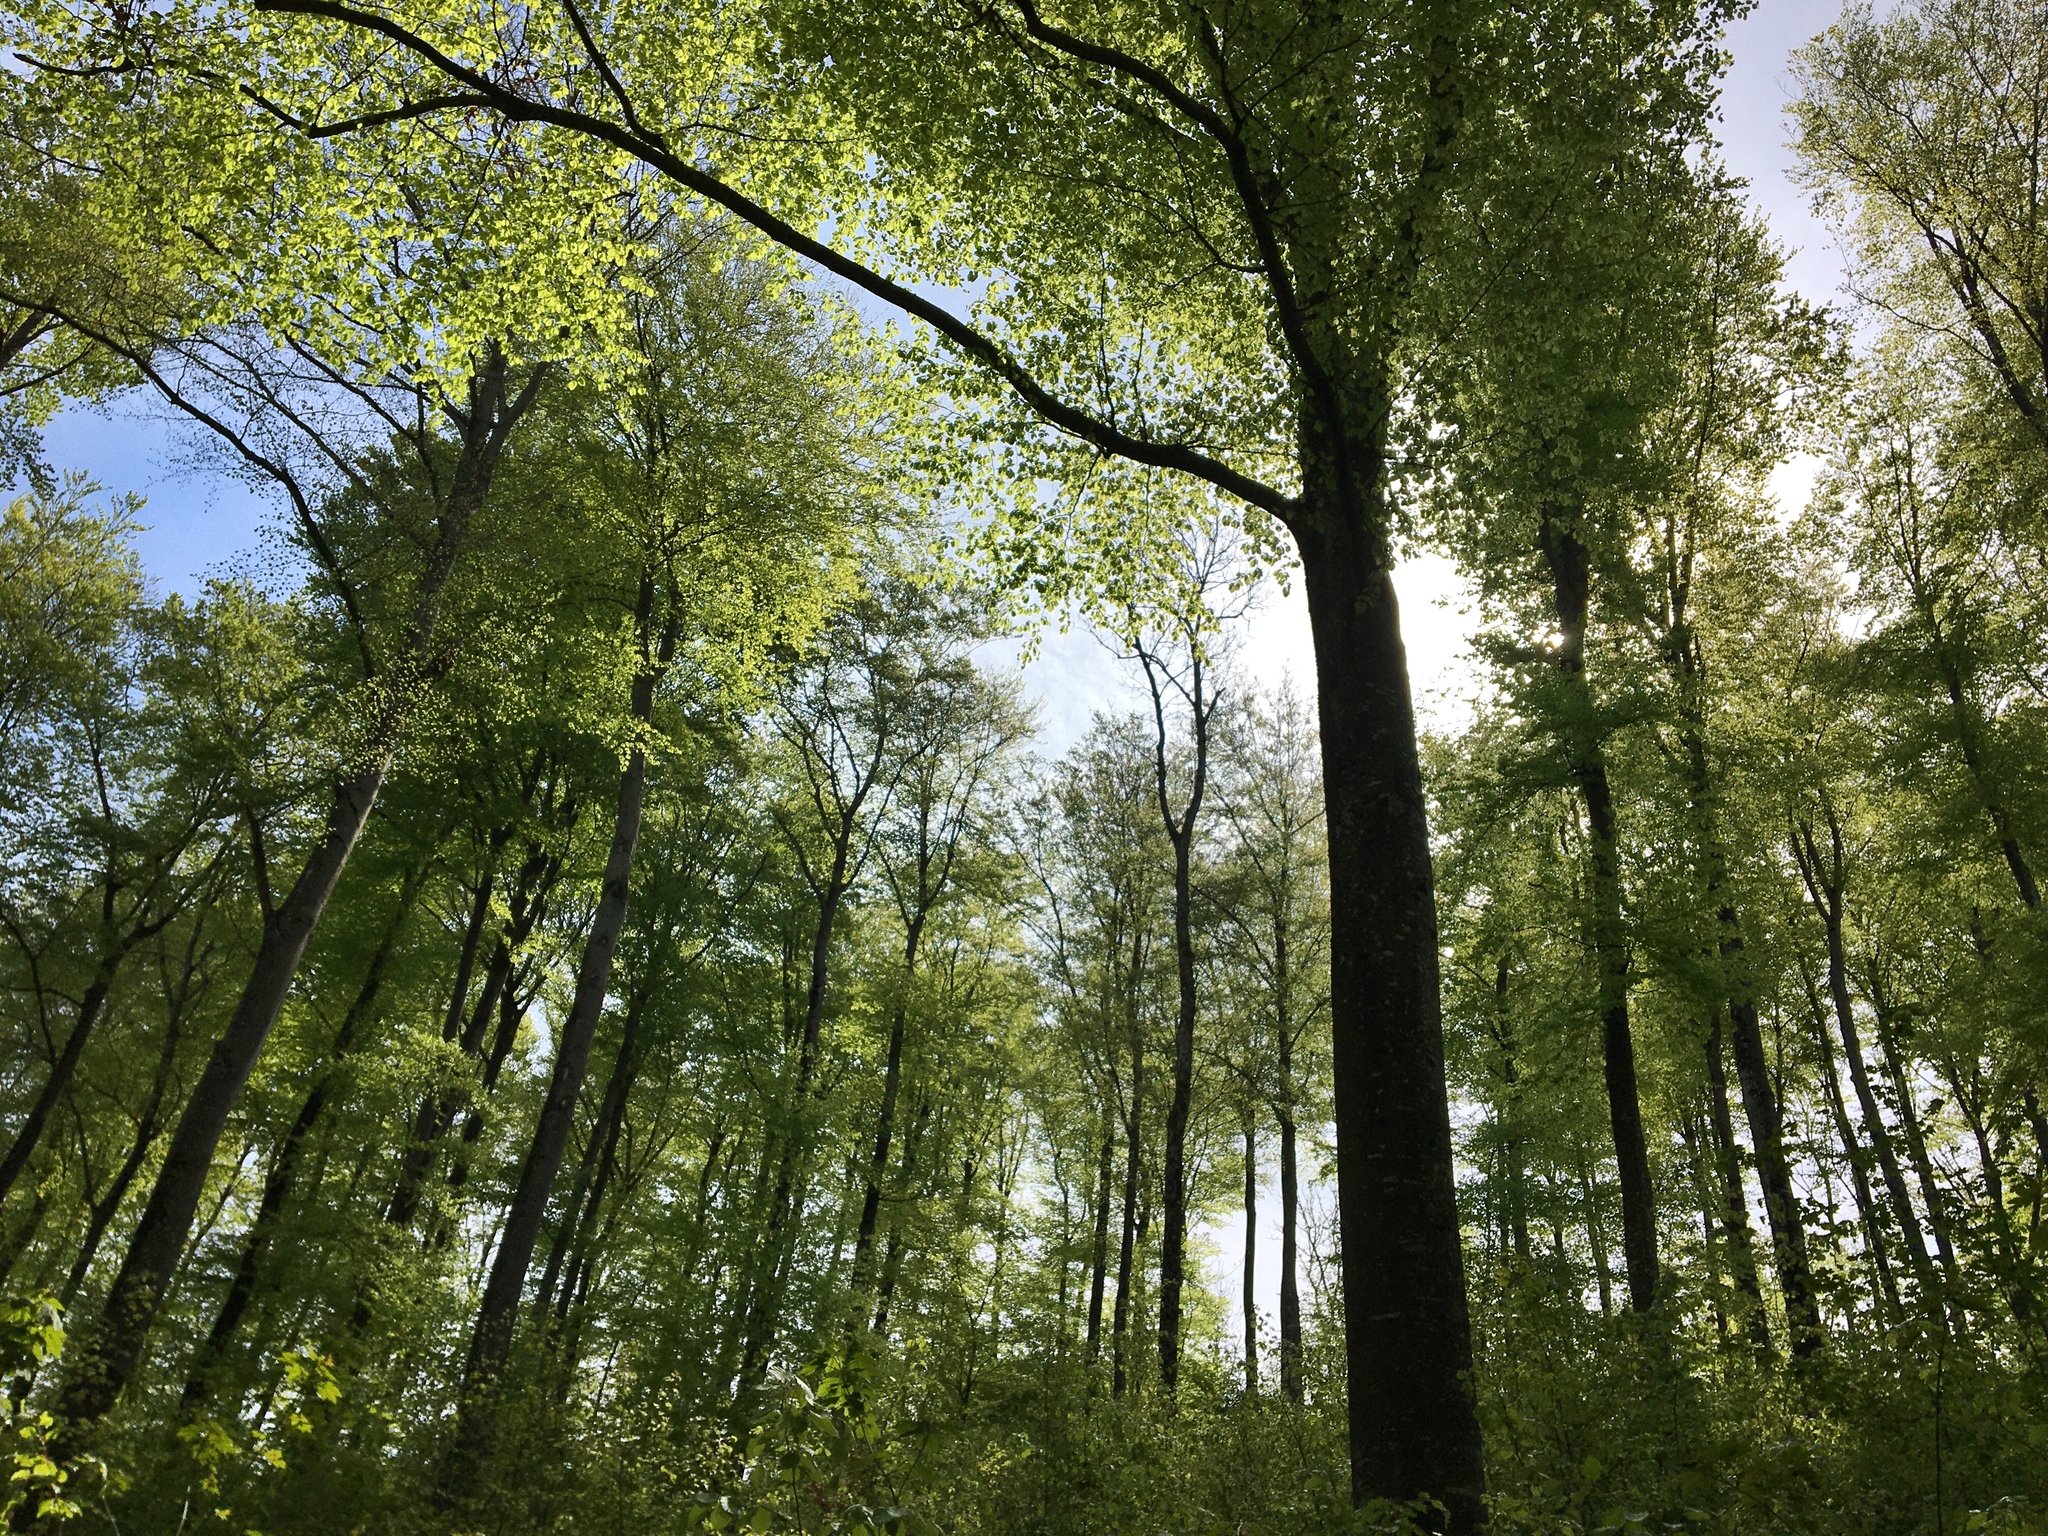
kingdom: Plantae
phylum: Tracheophyta
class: Magnoliopsida
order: Fagales
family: Fagaceae
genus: Fagus
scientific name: Fagus sylvatica
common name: Beech
